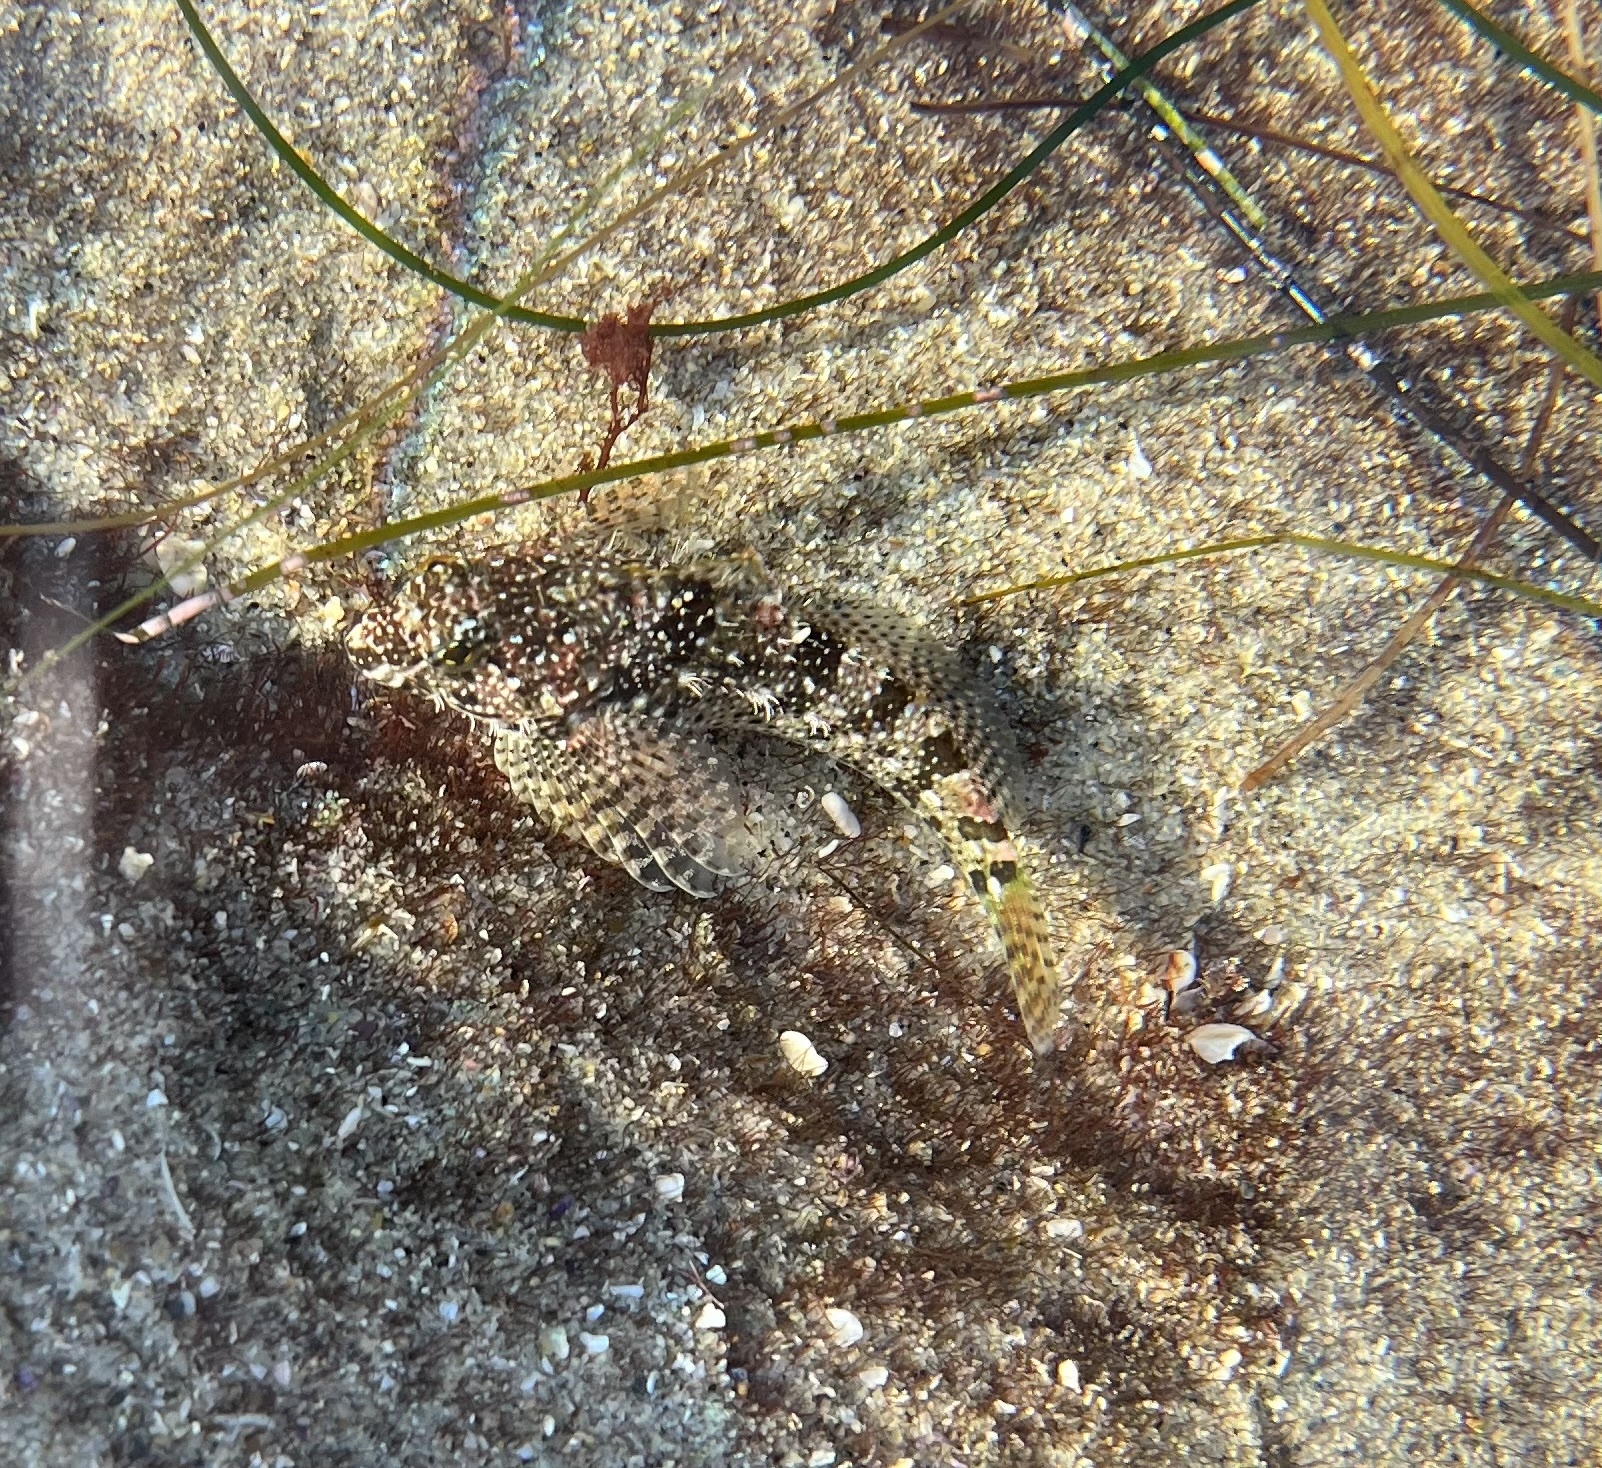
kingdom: Animalia
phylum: Chordata
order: Scorpaeniformes
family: Cottidae
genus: Clinocottus
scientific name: Clinocottus analis
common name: Woolly sculpin
